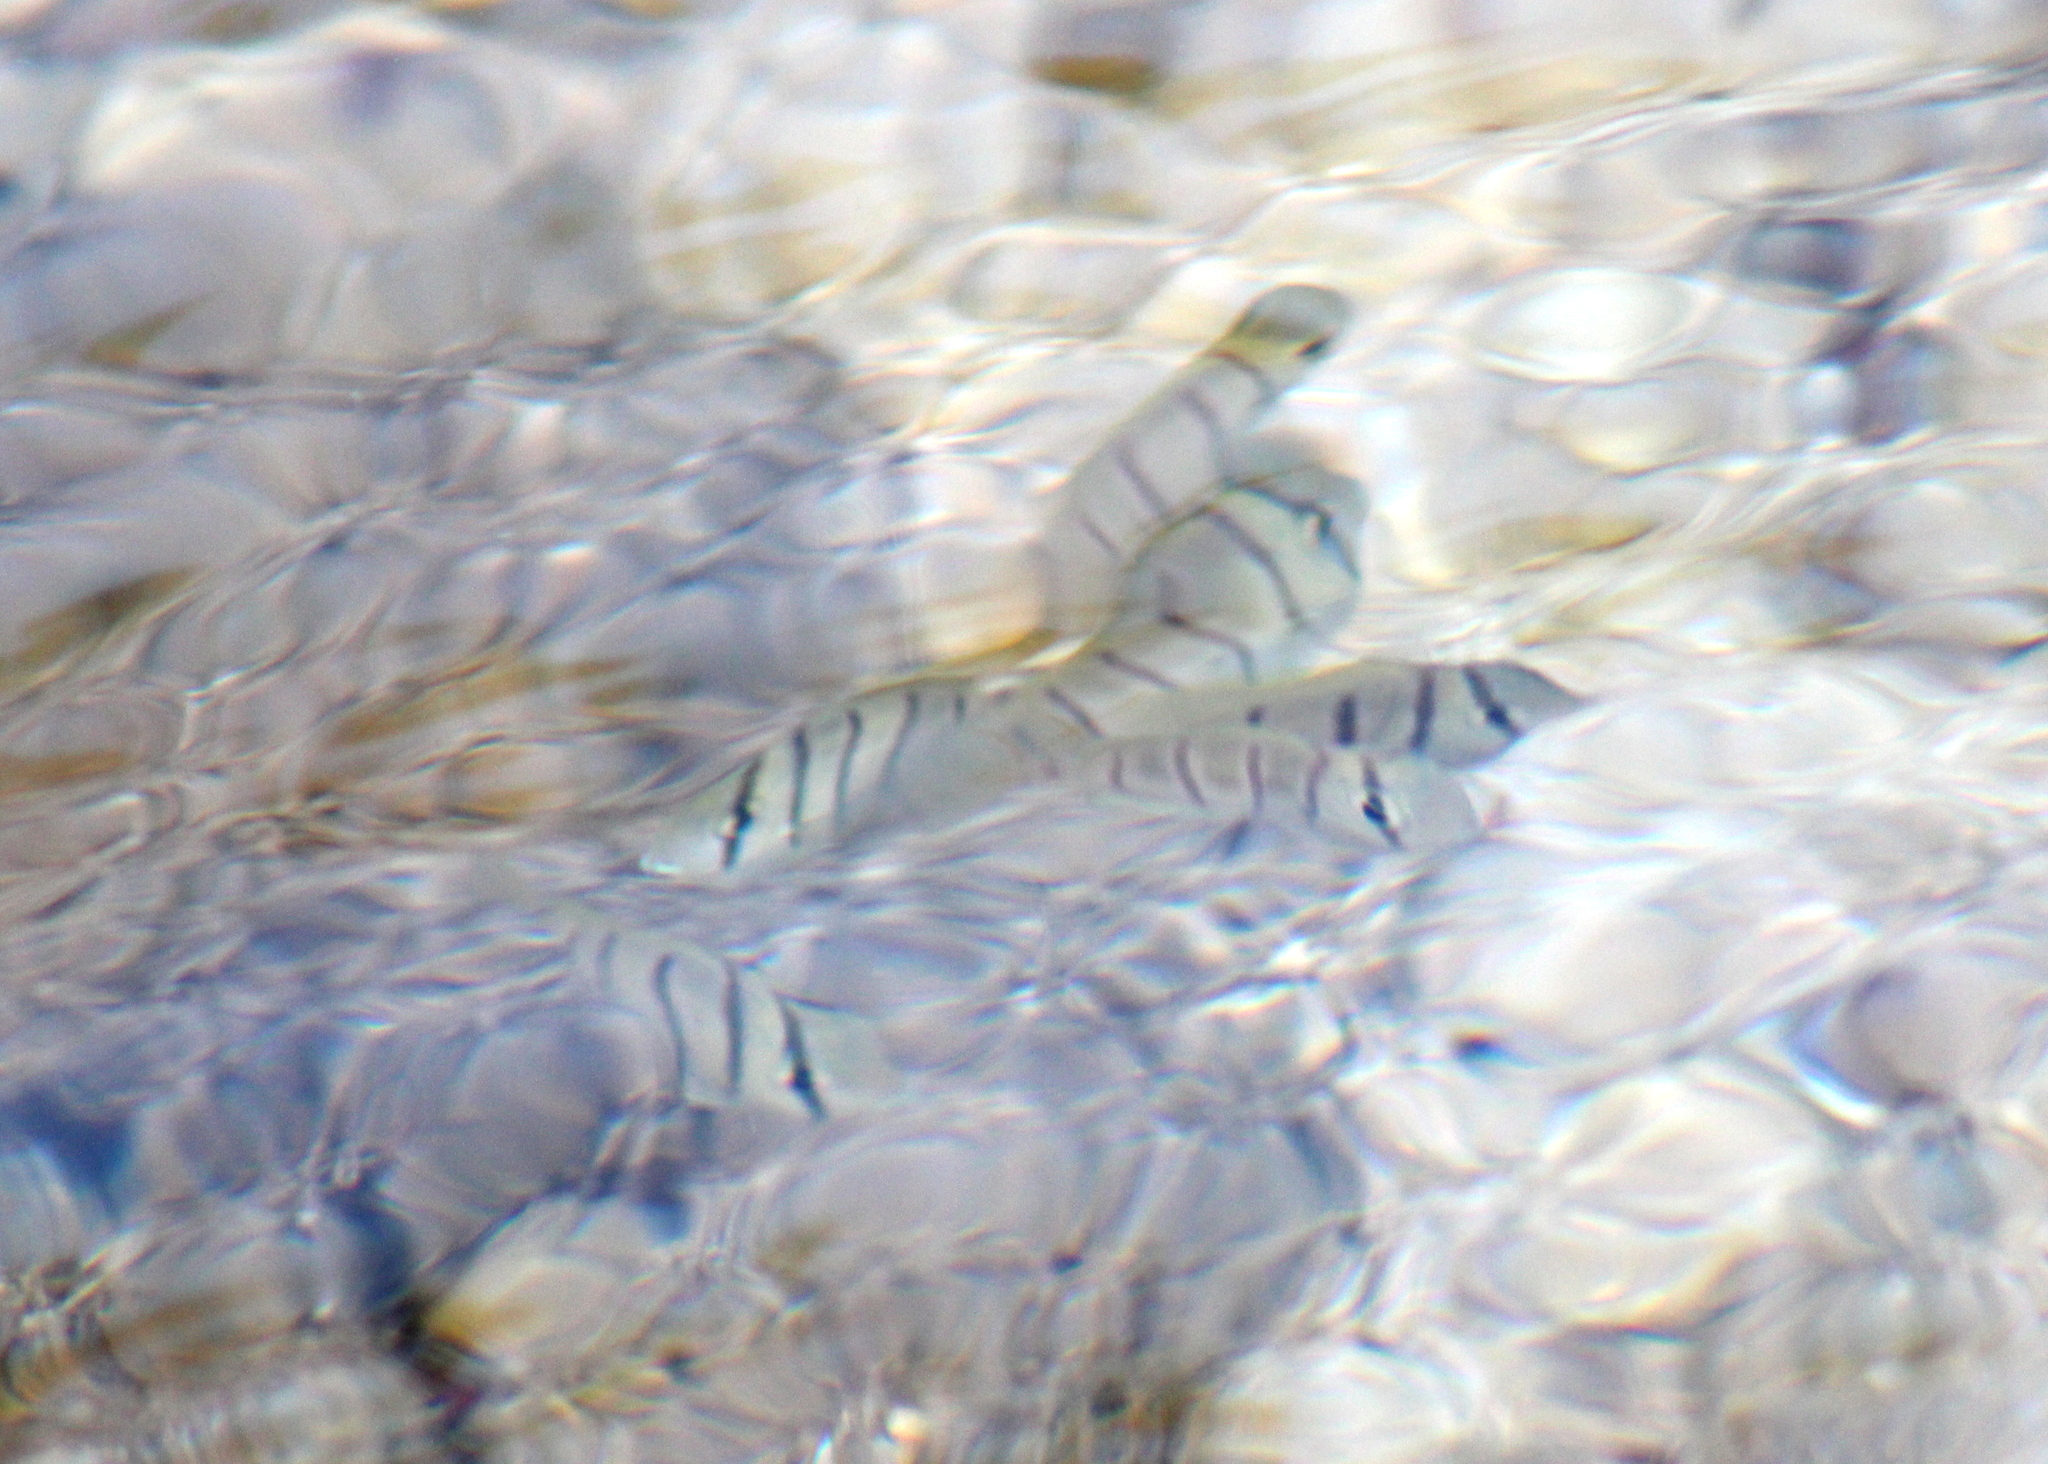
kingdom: Animalia
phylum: Chordata
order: Perciformes
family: Acanthuridae
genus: Acanthurus
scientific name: Acanthurus triostegus
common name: Convict surgeonfish
